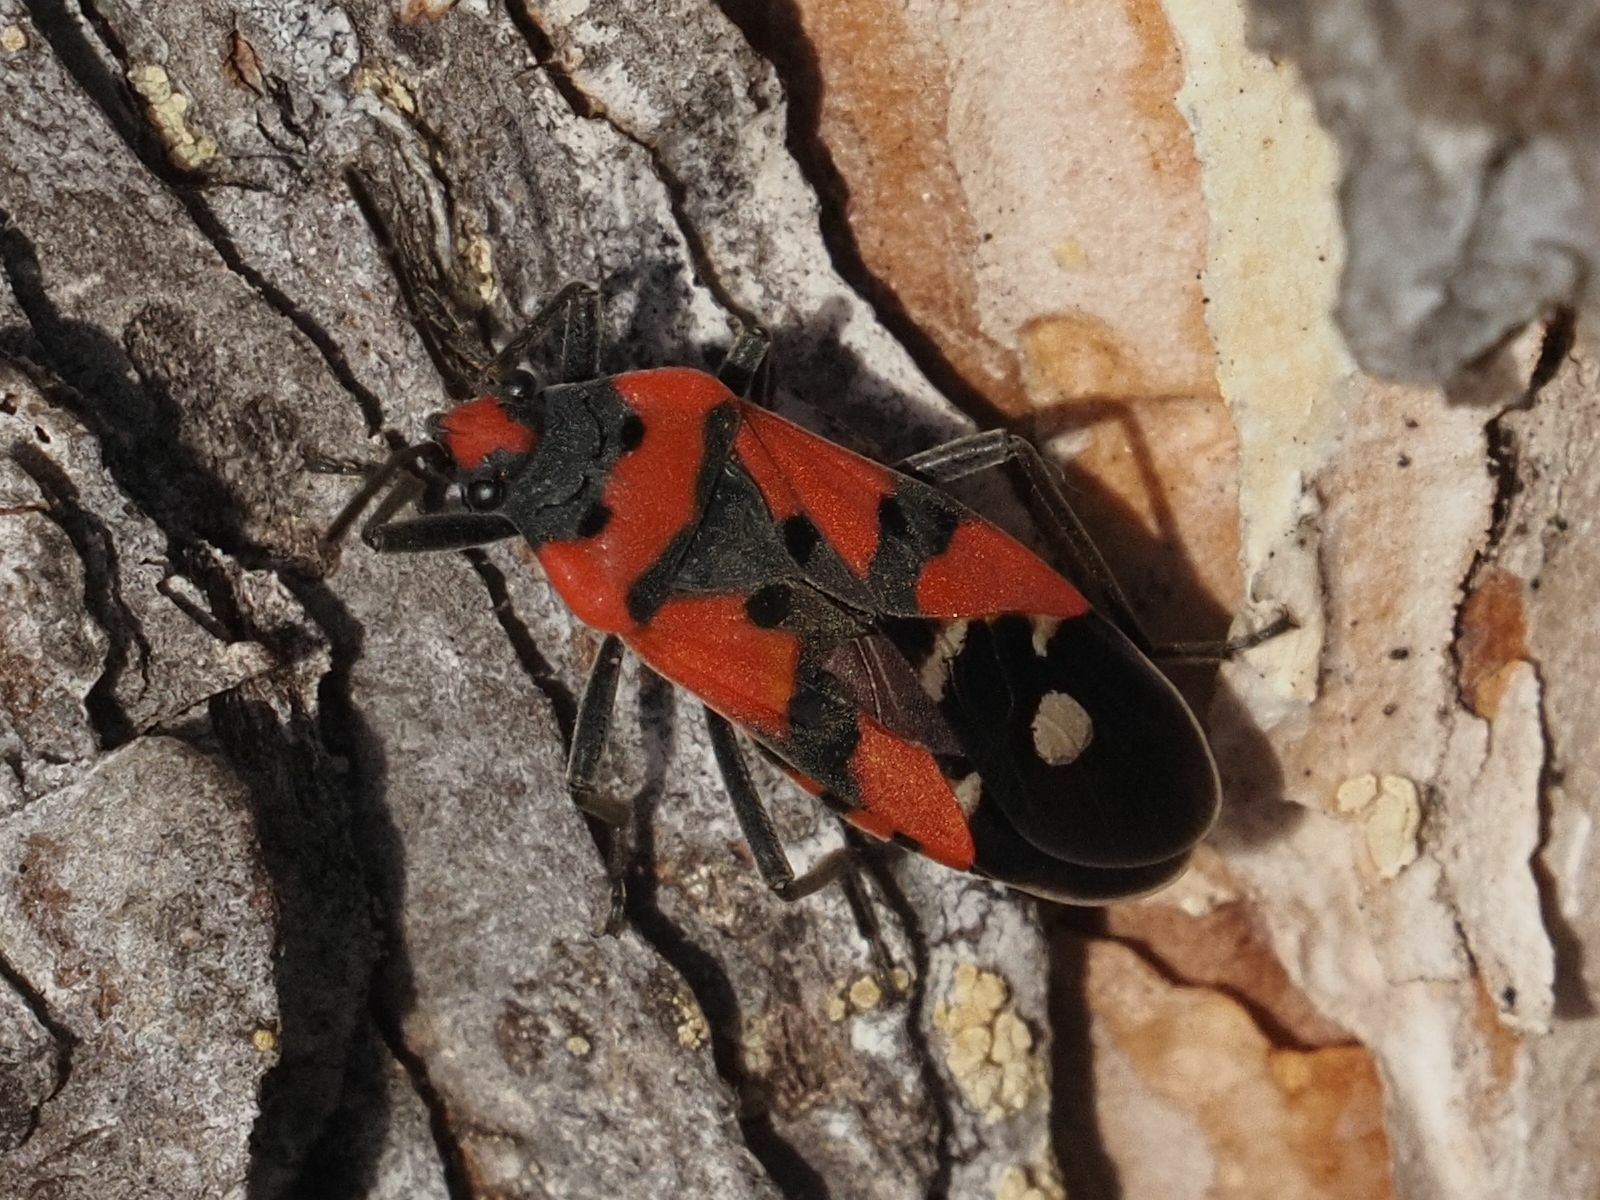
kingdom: Animalia
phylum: Arthropoda
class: Insecta
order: Hemiptera
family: Lygaeidae
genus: Lygaeus
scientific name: Lygaeus equestris
